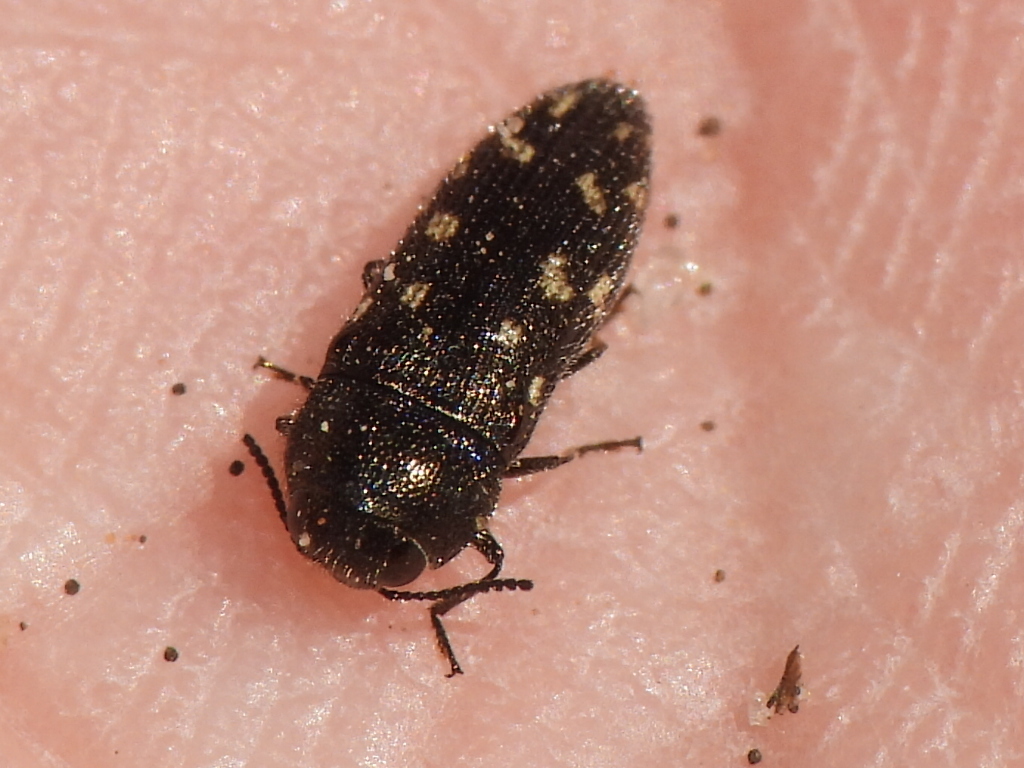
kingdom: Animalia
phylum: Arthropoda
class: Insecta
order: Coleoptera
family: Buprestidae
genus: Acmaeodera
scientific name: Acmaeodera tubulus
